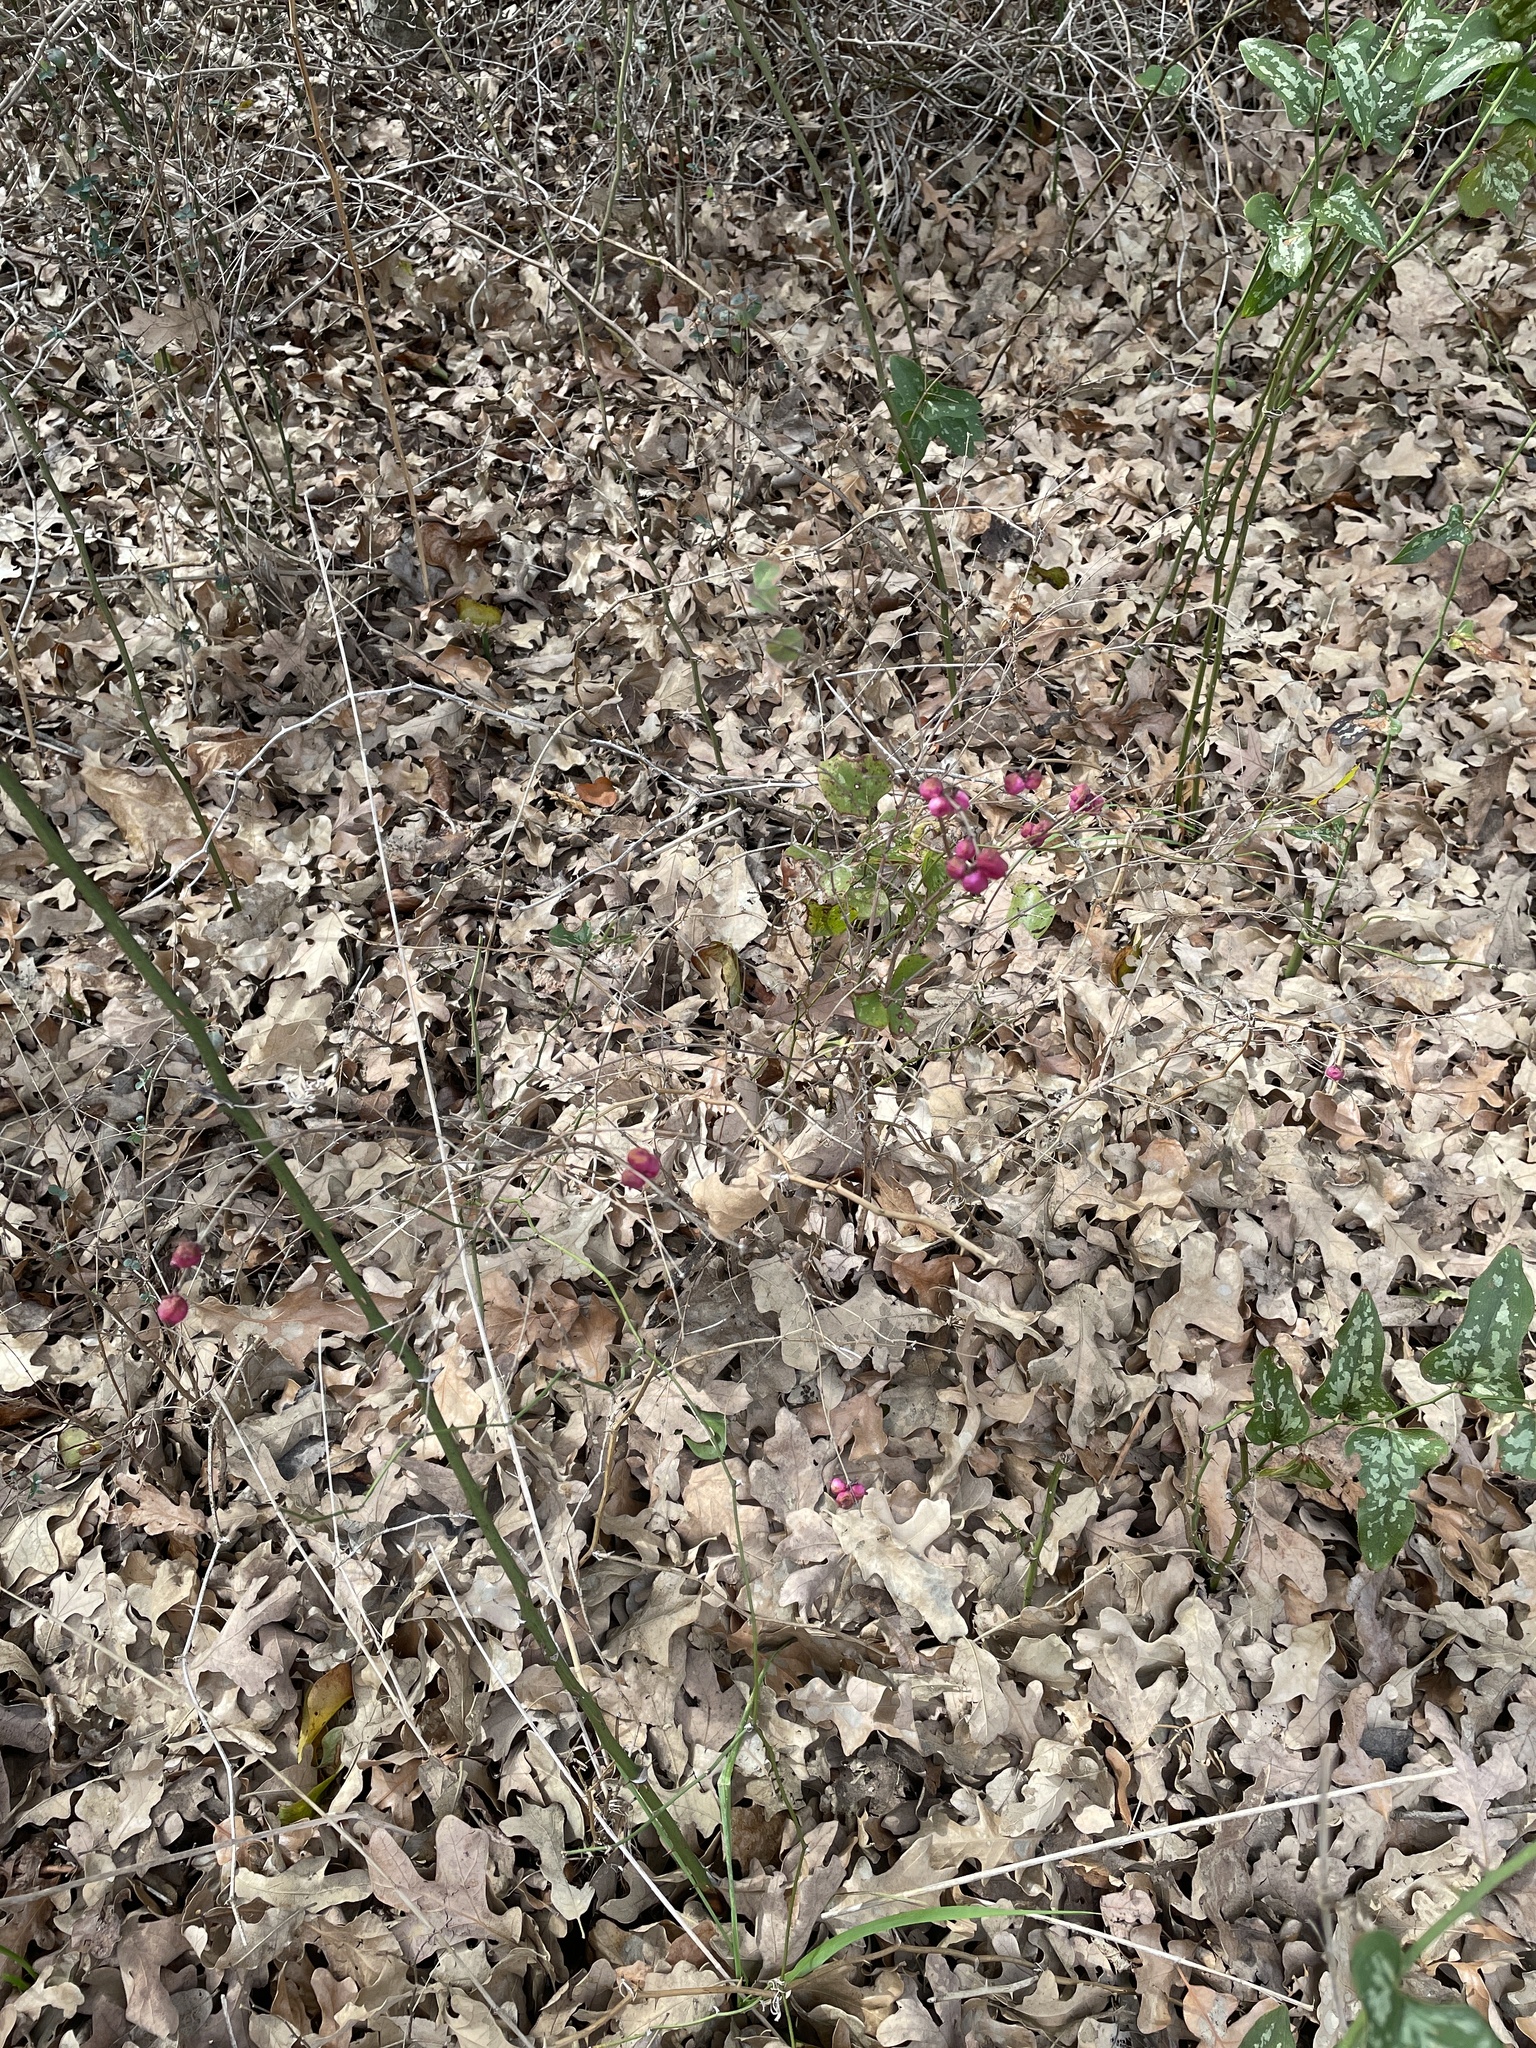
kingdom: Plantae
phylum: Tracheophyta
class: Magnoliopsida
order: Dipsacales
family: Caprifoliaceae
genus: Symphoricarpos
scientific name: Symphoricarpos orbiculatus
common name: Coralberry
